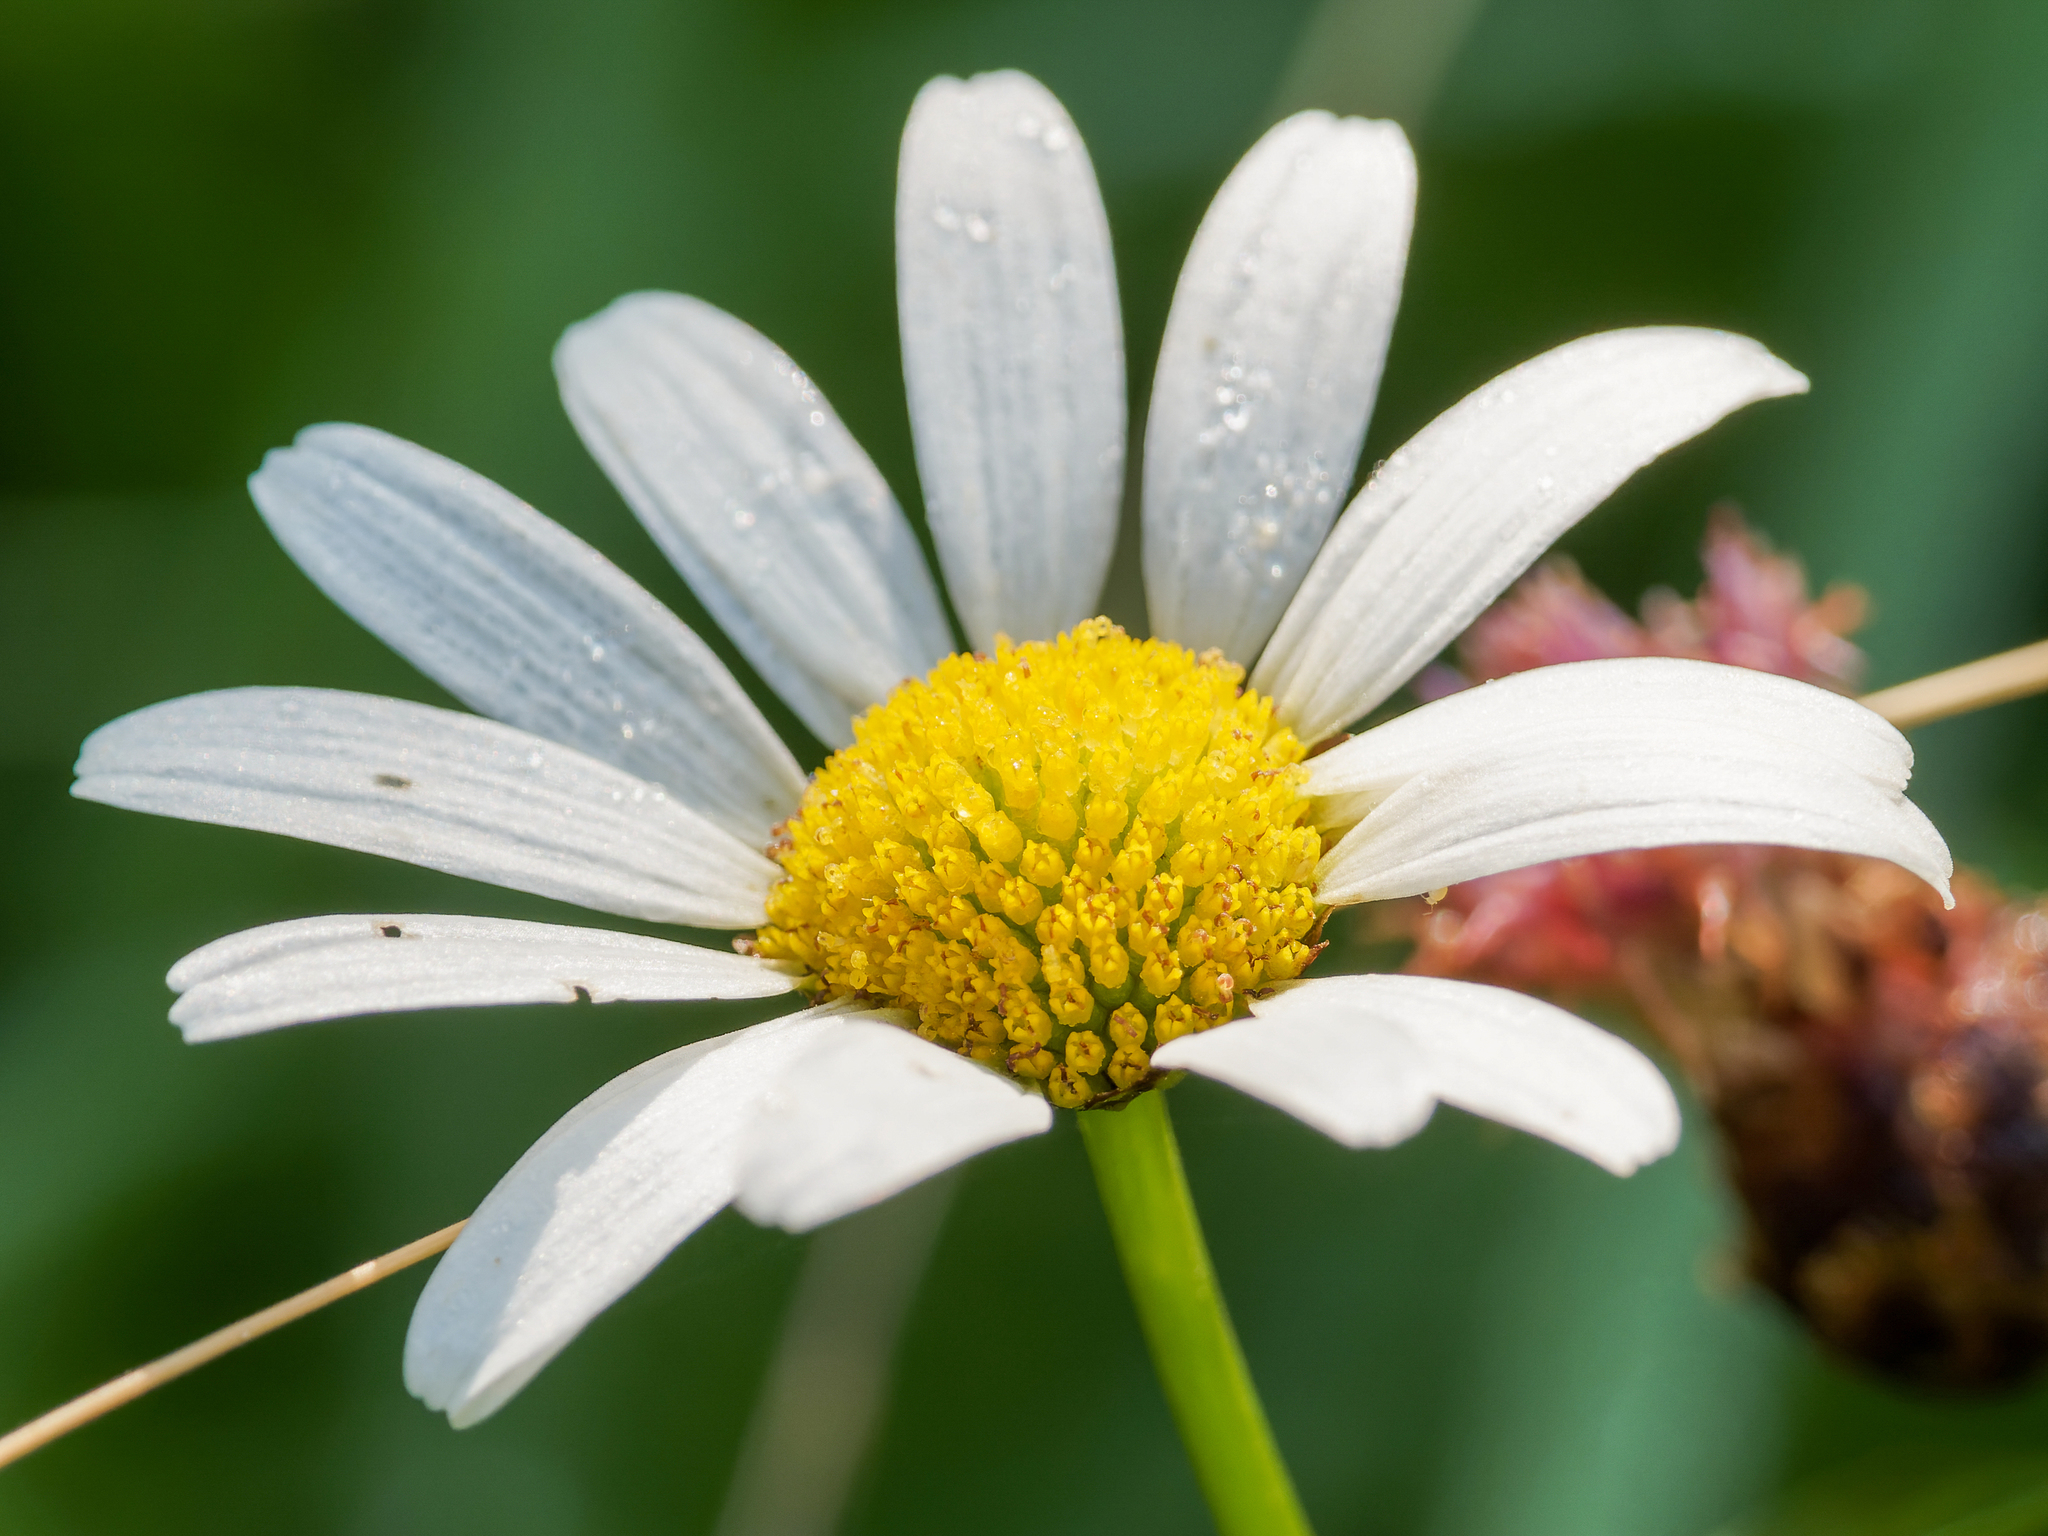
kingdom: Plantae
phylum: Tracheophyta
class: Magnoliopsida
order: Asterales
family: Asteraceae
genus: Leucanthemum
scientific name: Leucanthemum vulgare
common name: Oxeye daisy
